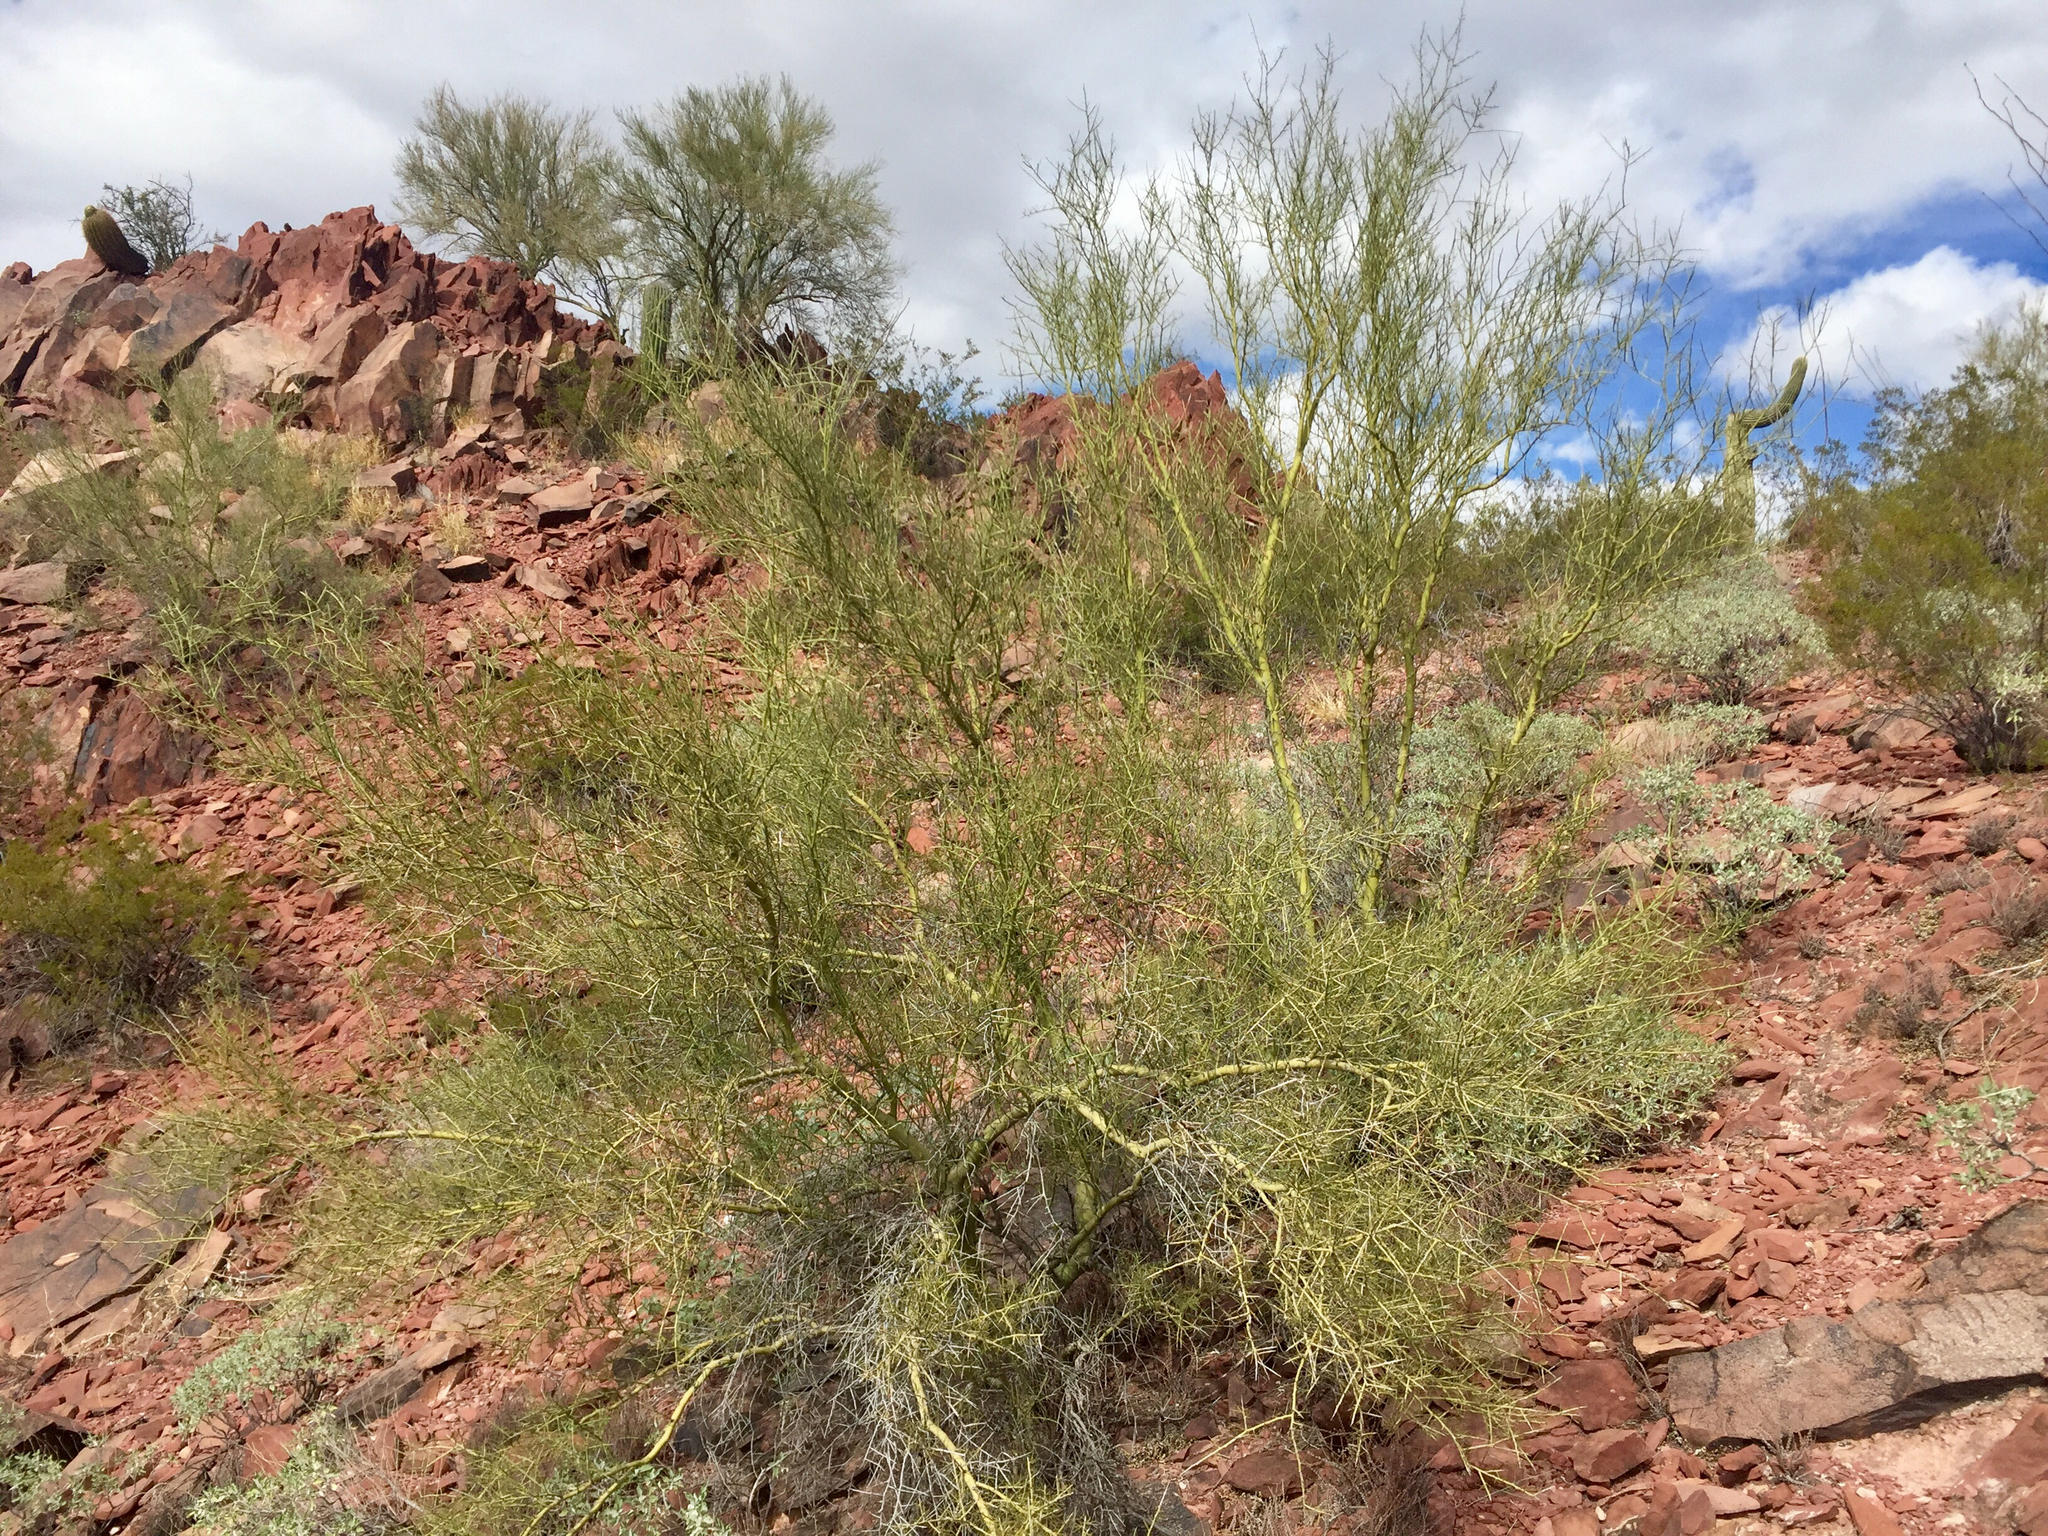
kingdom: Plantae
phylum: Tracheophyta
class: Magnoliopsida
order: Fabales
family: Fabaceae
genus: Parkinsonia
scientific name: Parkinsonia microphylla
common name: Yellow paloverde
